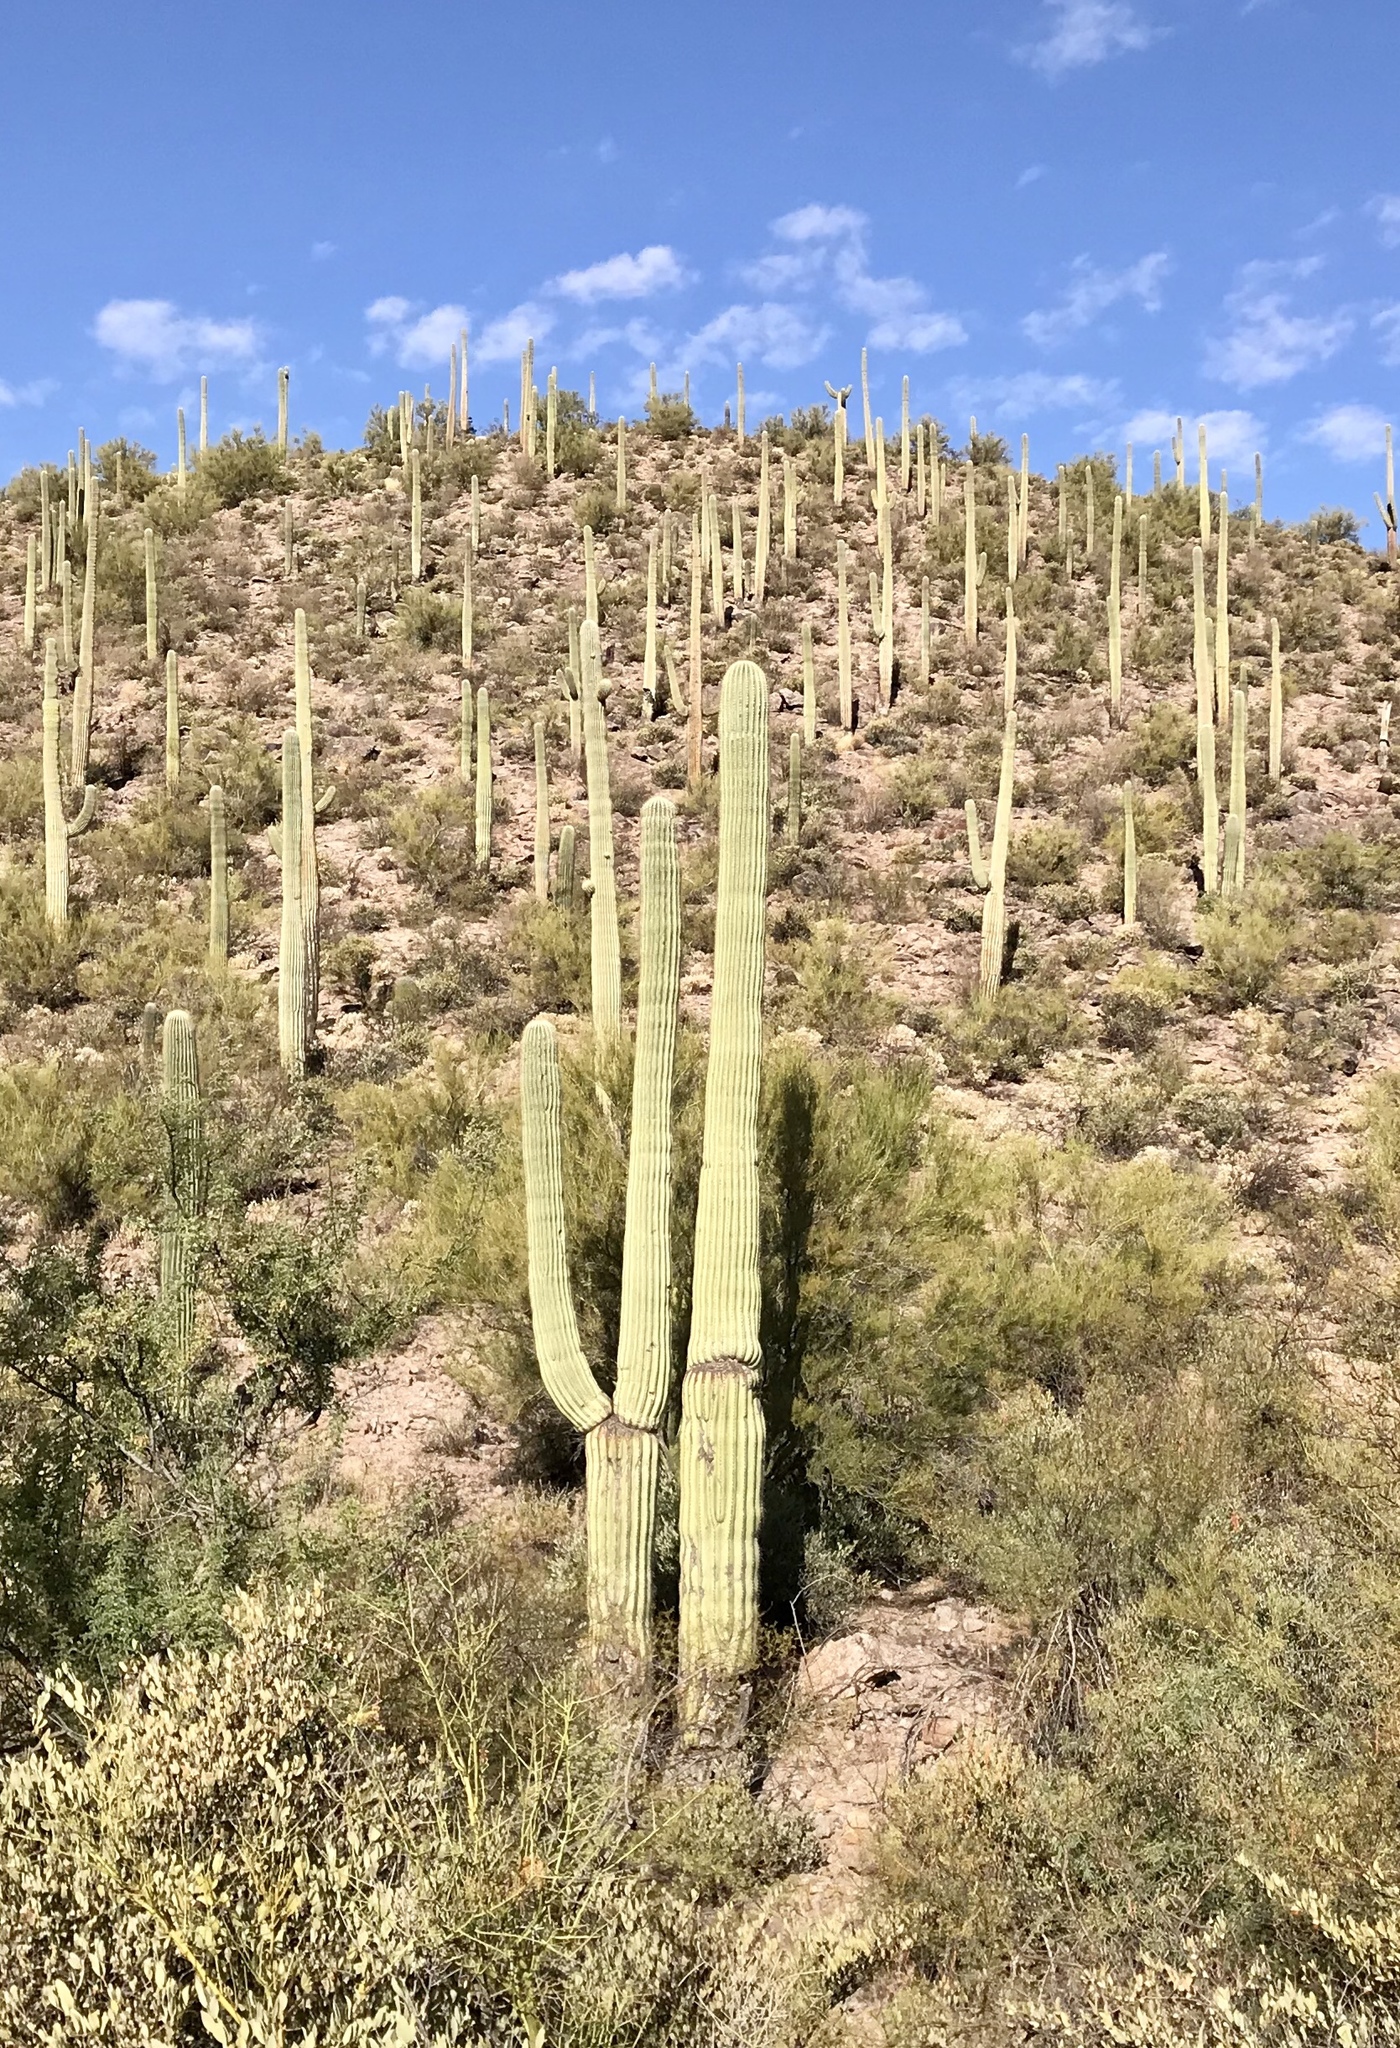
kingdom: Plantae
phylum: Tracheophyta
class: Magnoliopsida
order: Caryophyllales
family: Cactaceae
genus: Carnegiea
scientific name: Carnegiea gigantea
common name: Saguaro
